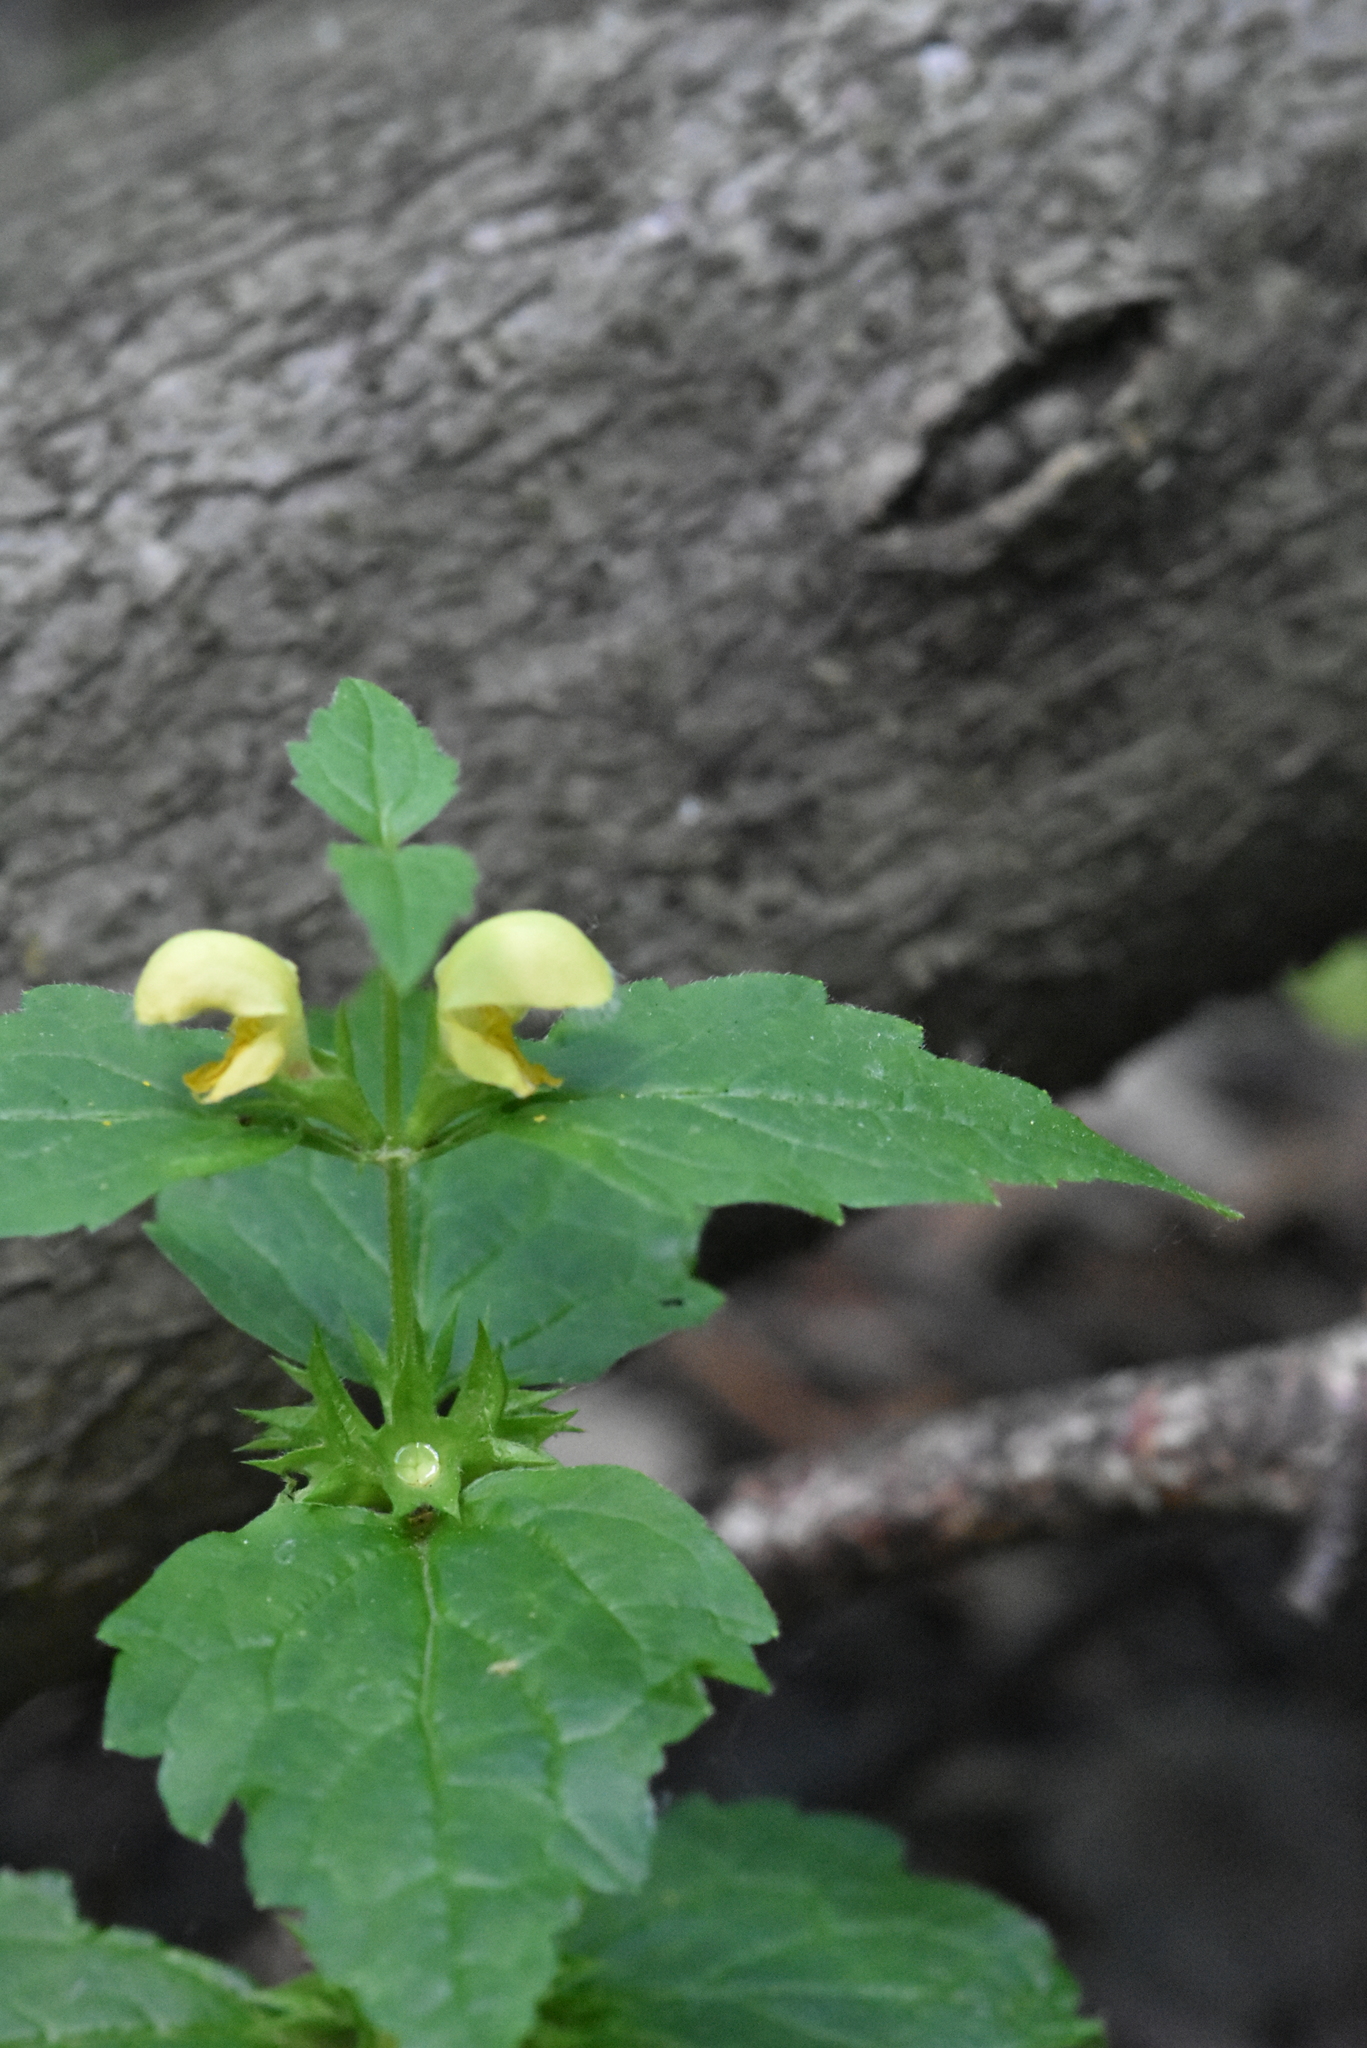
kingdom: Plantae
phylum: Tracheophyta
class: Magnoliopsida
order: Lamiales
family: Lamiaceae
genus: Lamium
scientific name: Lamium galeobdolon
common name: Yellow archangel
